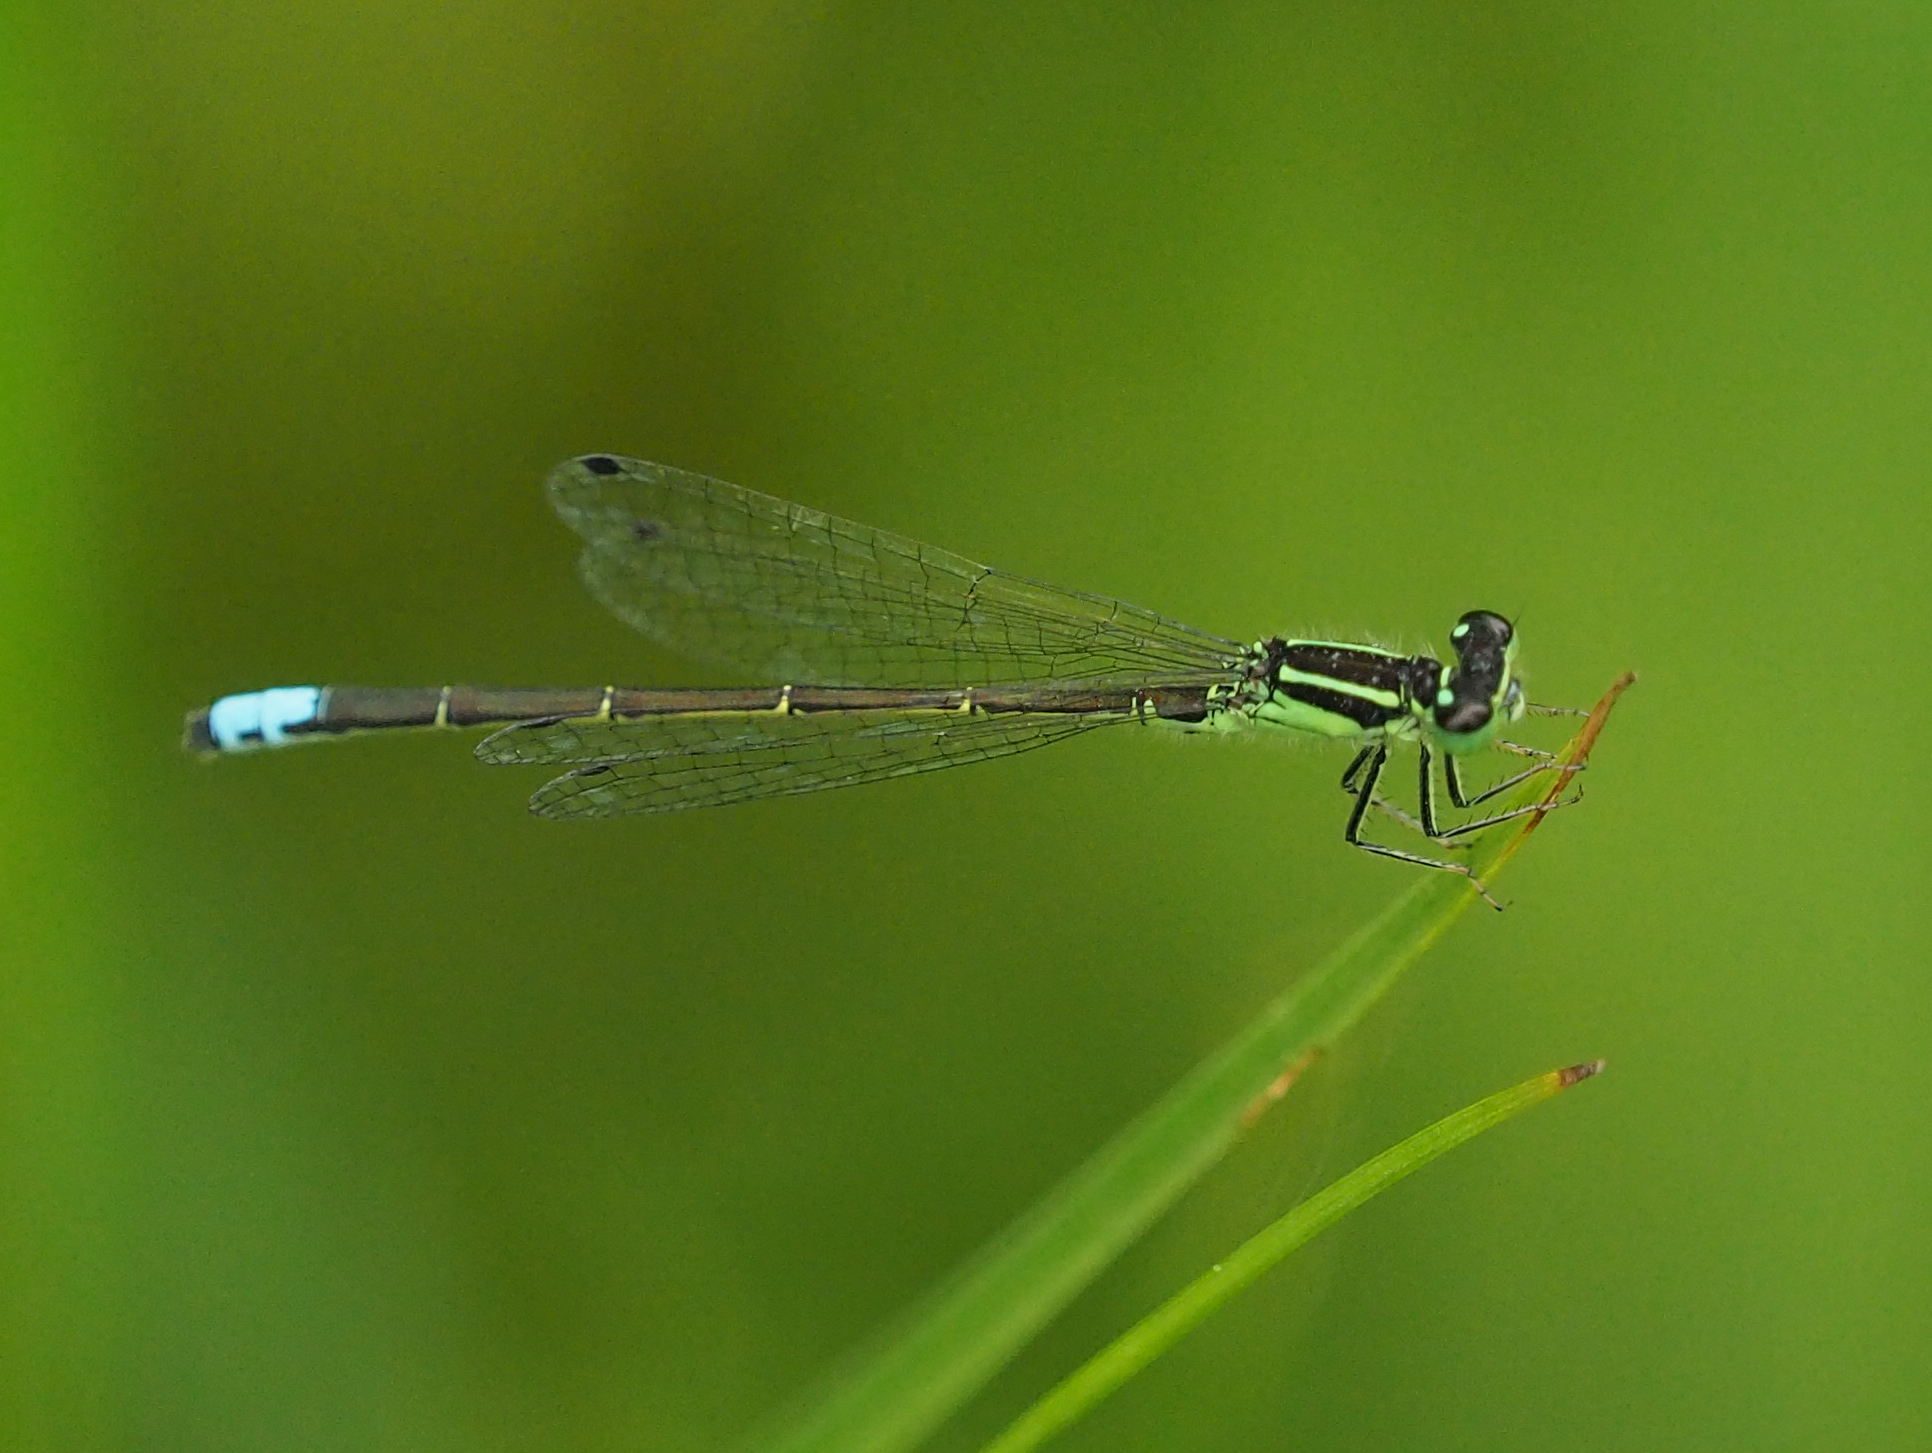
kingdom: Animalia
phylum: Arthropoda
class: Insecta
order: Odonata
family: Coenagrionidae
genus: Ischnura
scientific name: Ischnura verticalis
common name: Eastern forktail
